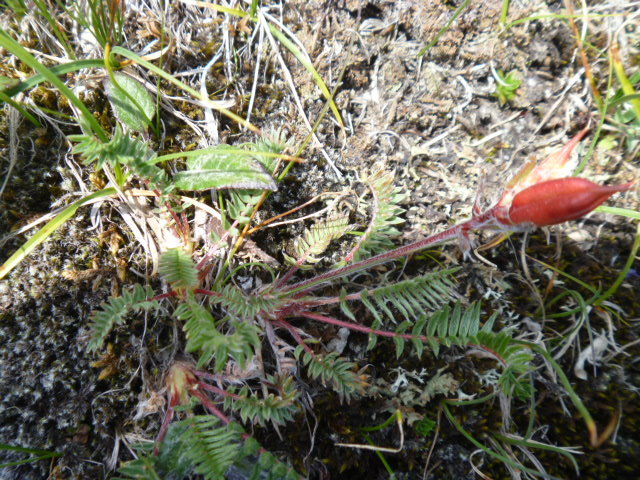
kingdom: Plantae
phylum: Tracheophyta
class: Magnoliopsida
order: Fabales
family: Fabaceae
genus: Oxytropis
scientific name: Oxytropis anertii
